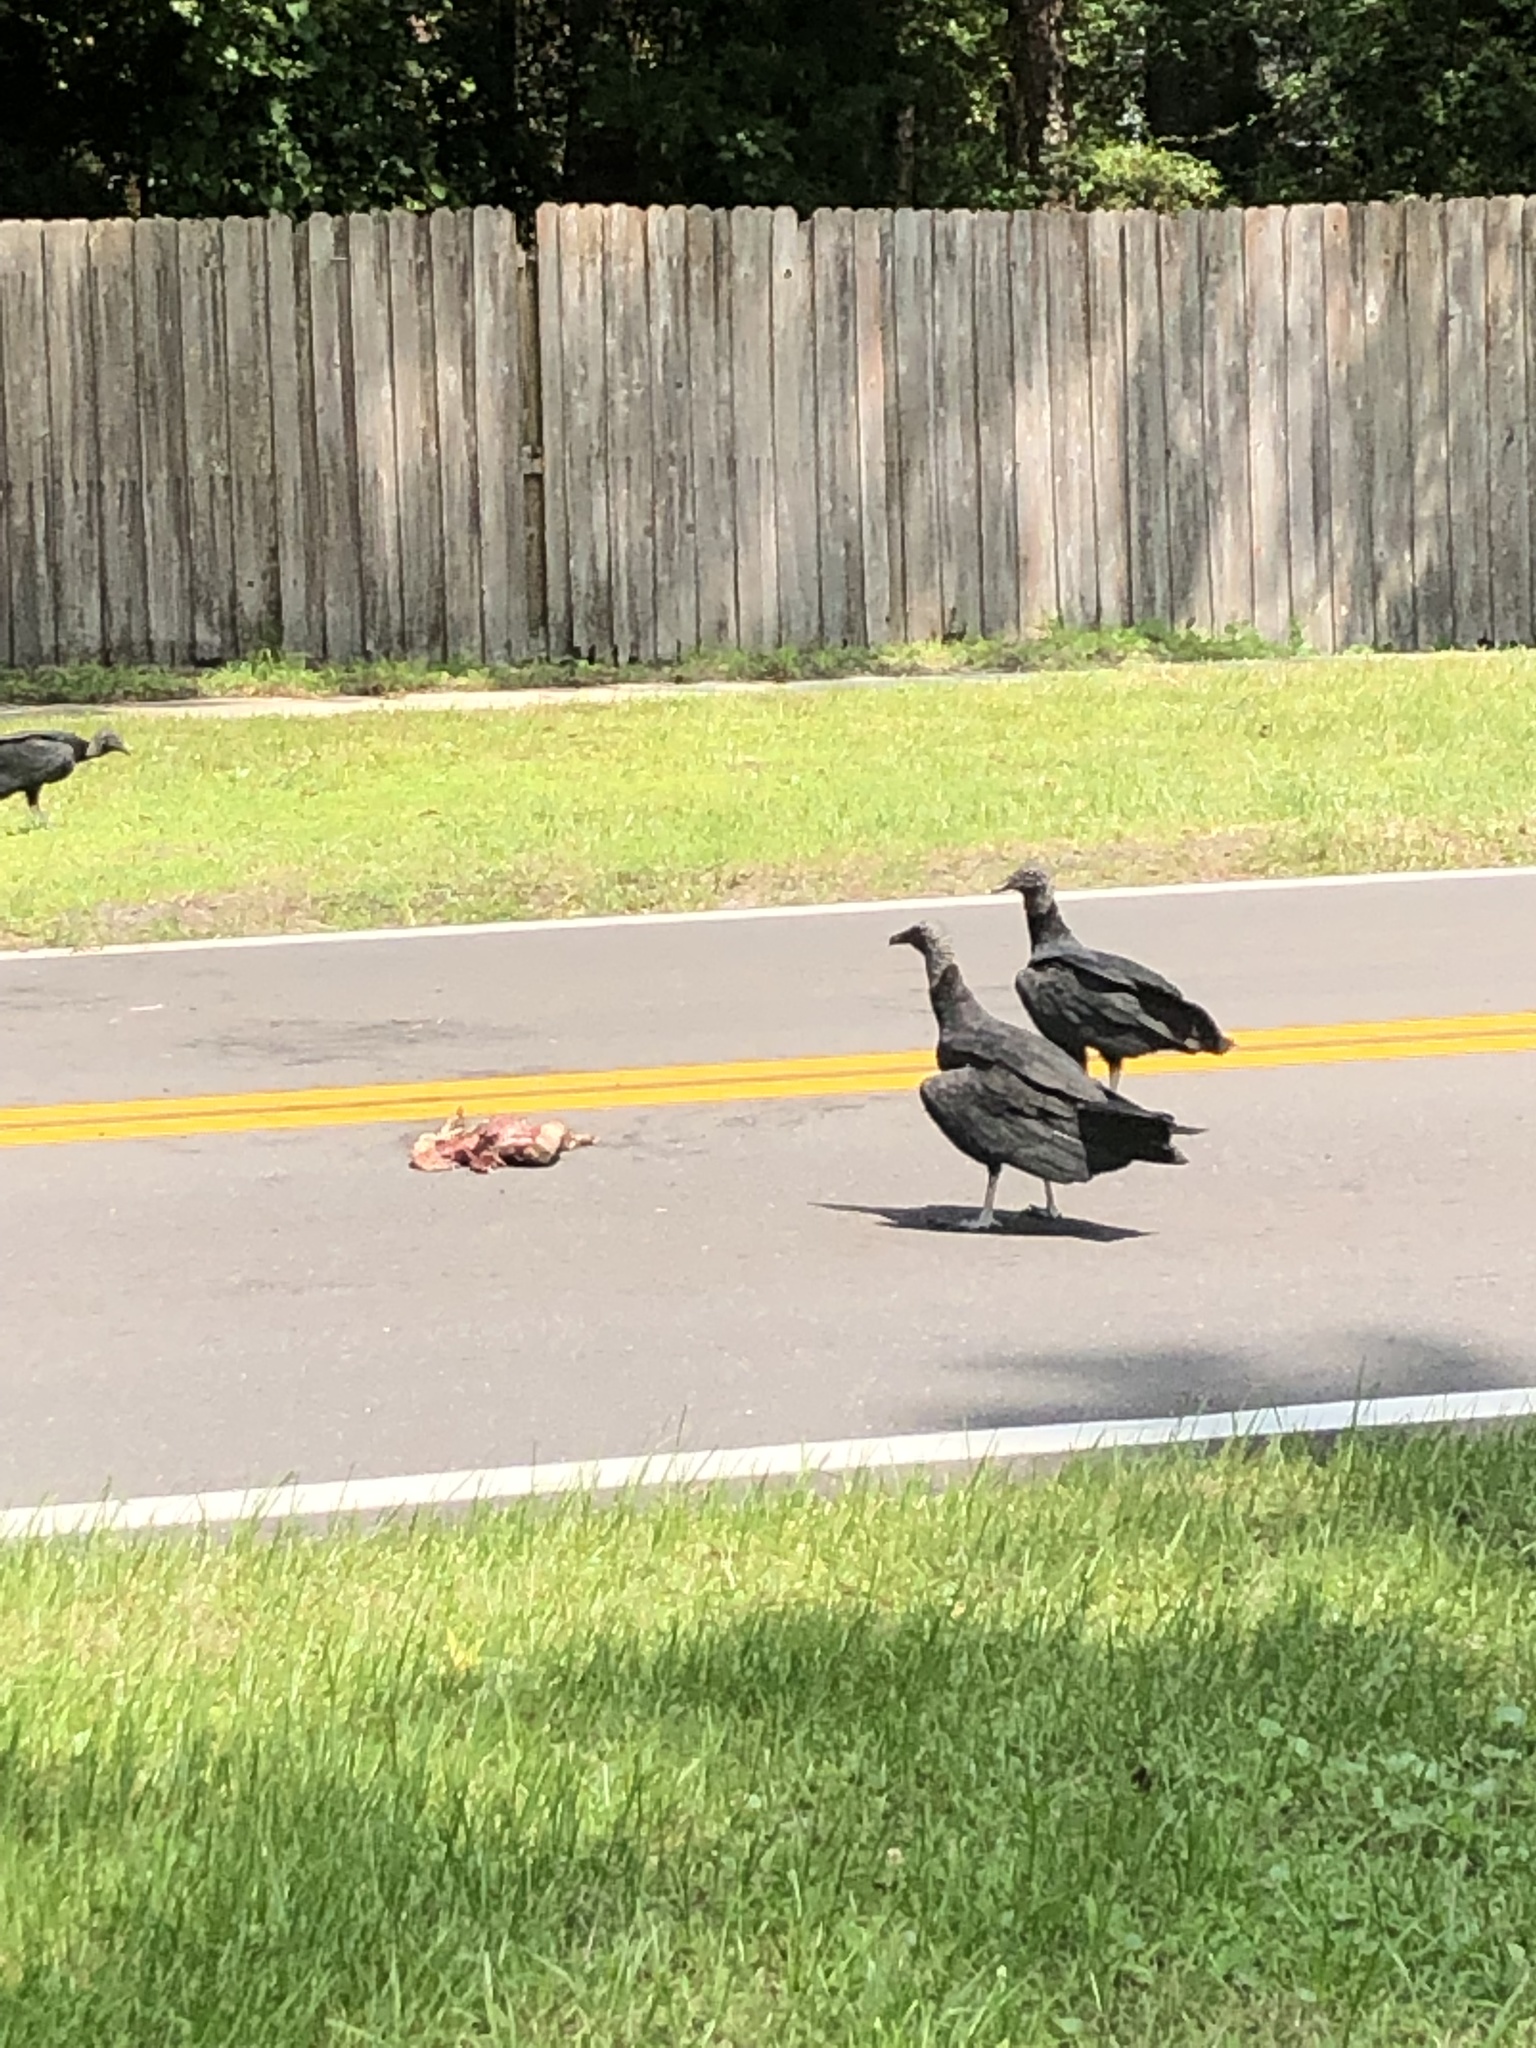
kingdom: Animalia
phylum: Chordata
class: Aves
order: Accipitriformes
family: Cathartidae
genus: Coragyps
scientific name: Coragyps atratus
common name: Black vulture
